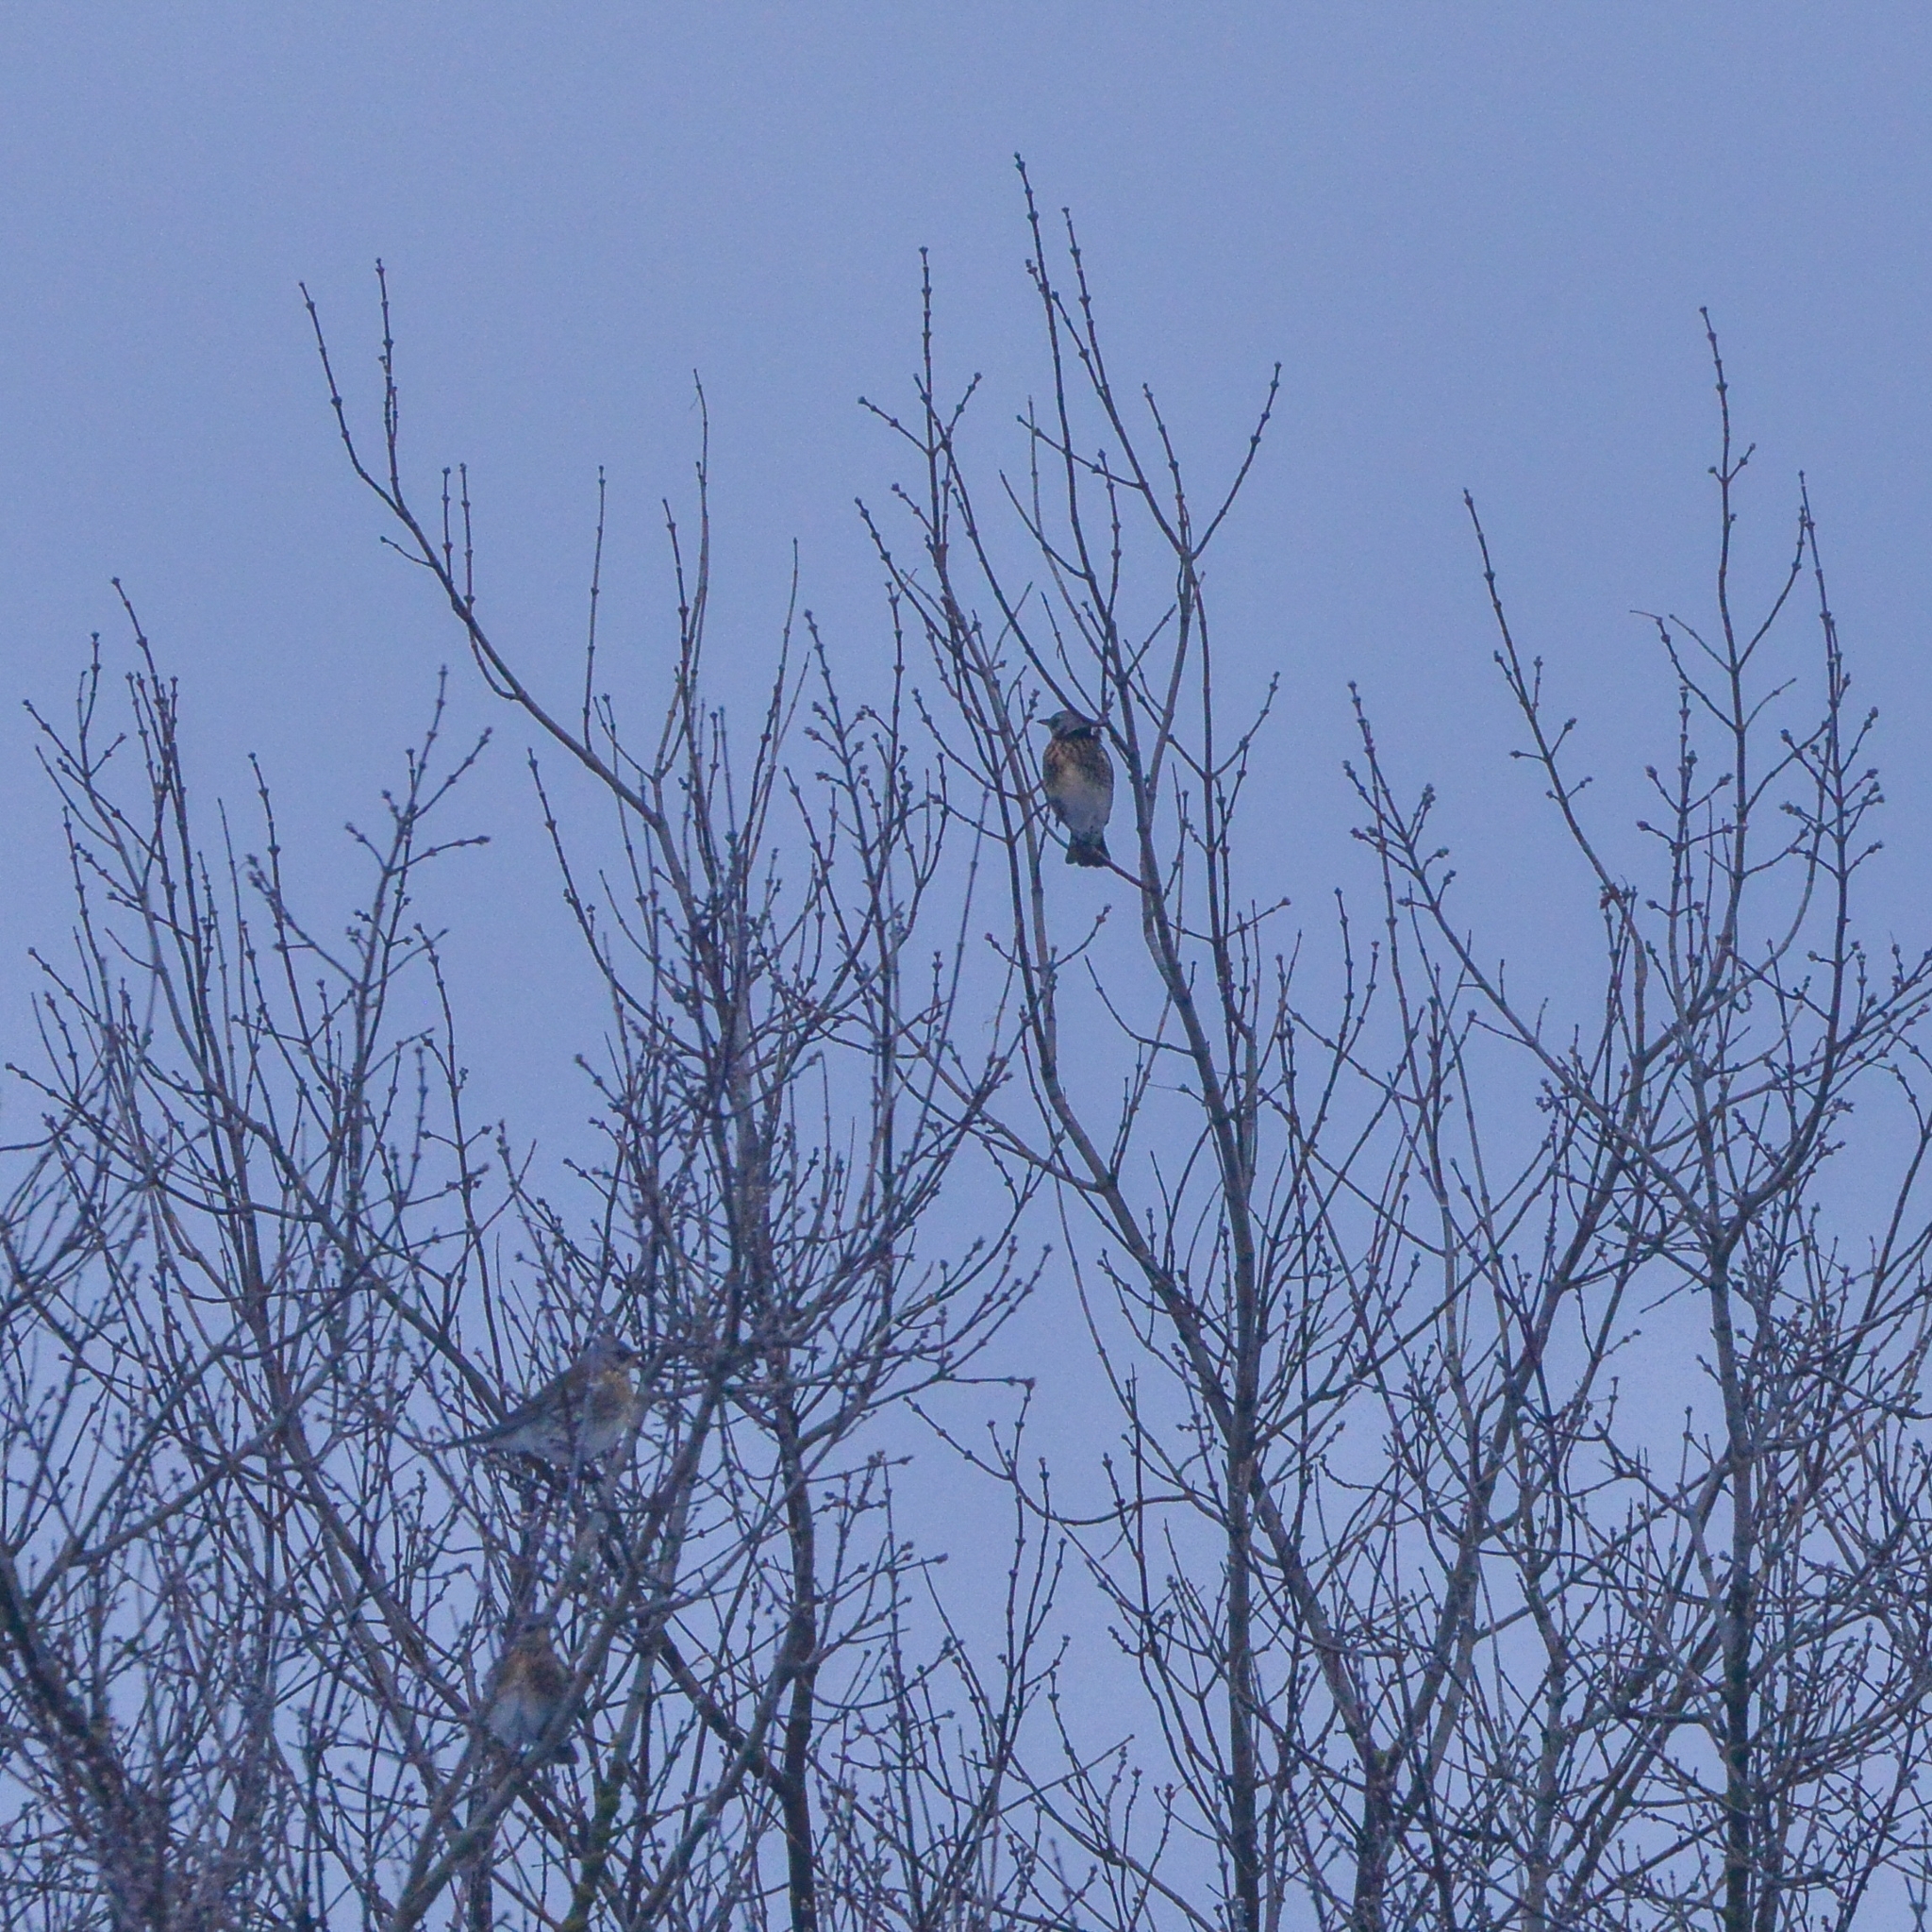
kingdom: Animalia
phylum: Chordata
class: Aves
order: Passeriformes
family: Turdidae
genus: Turdus
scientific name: Turdus pilaris
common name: Fieldfare
